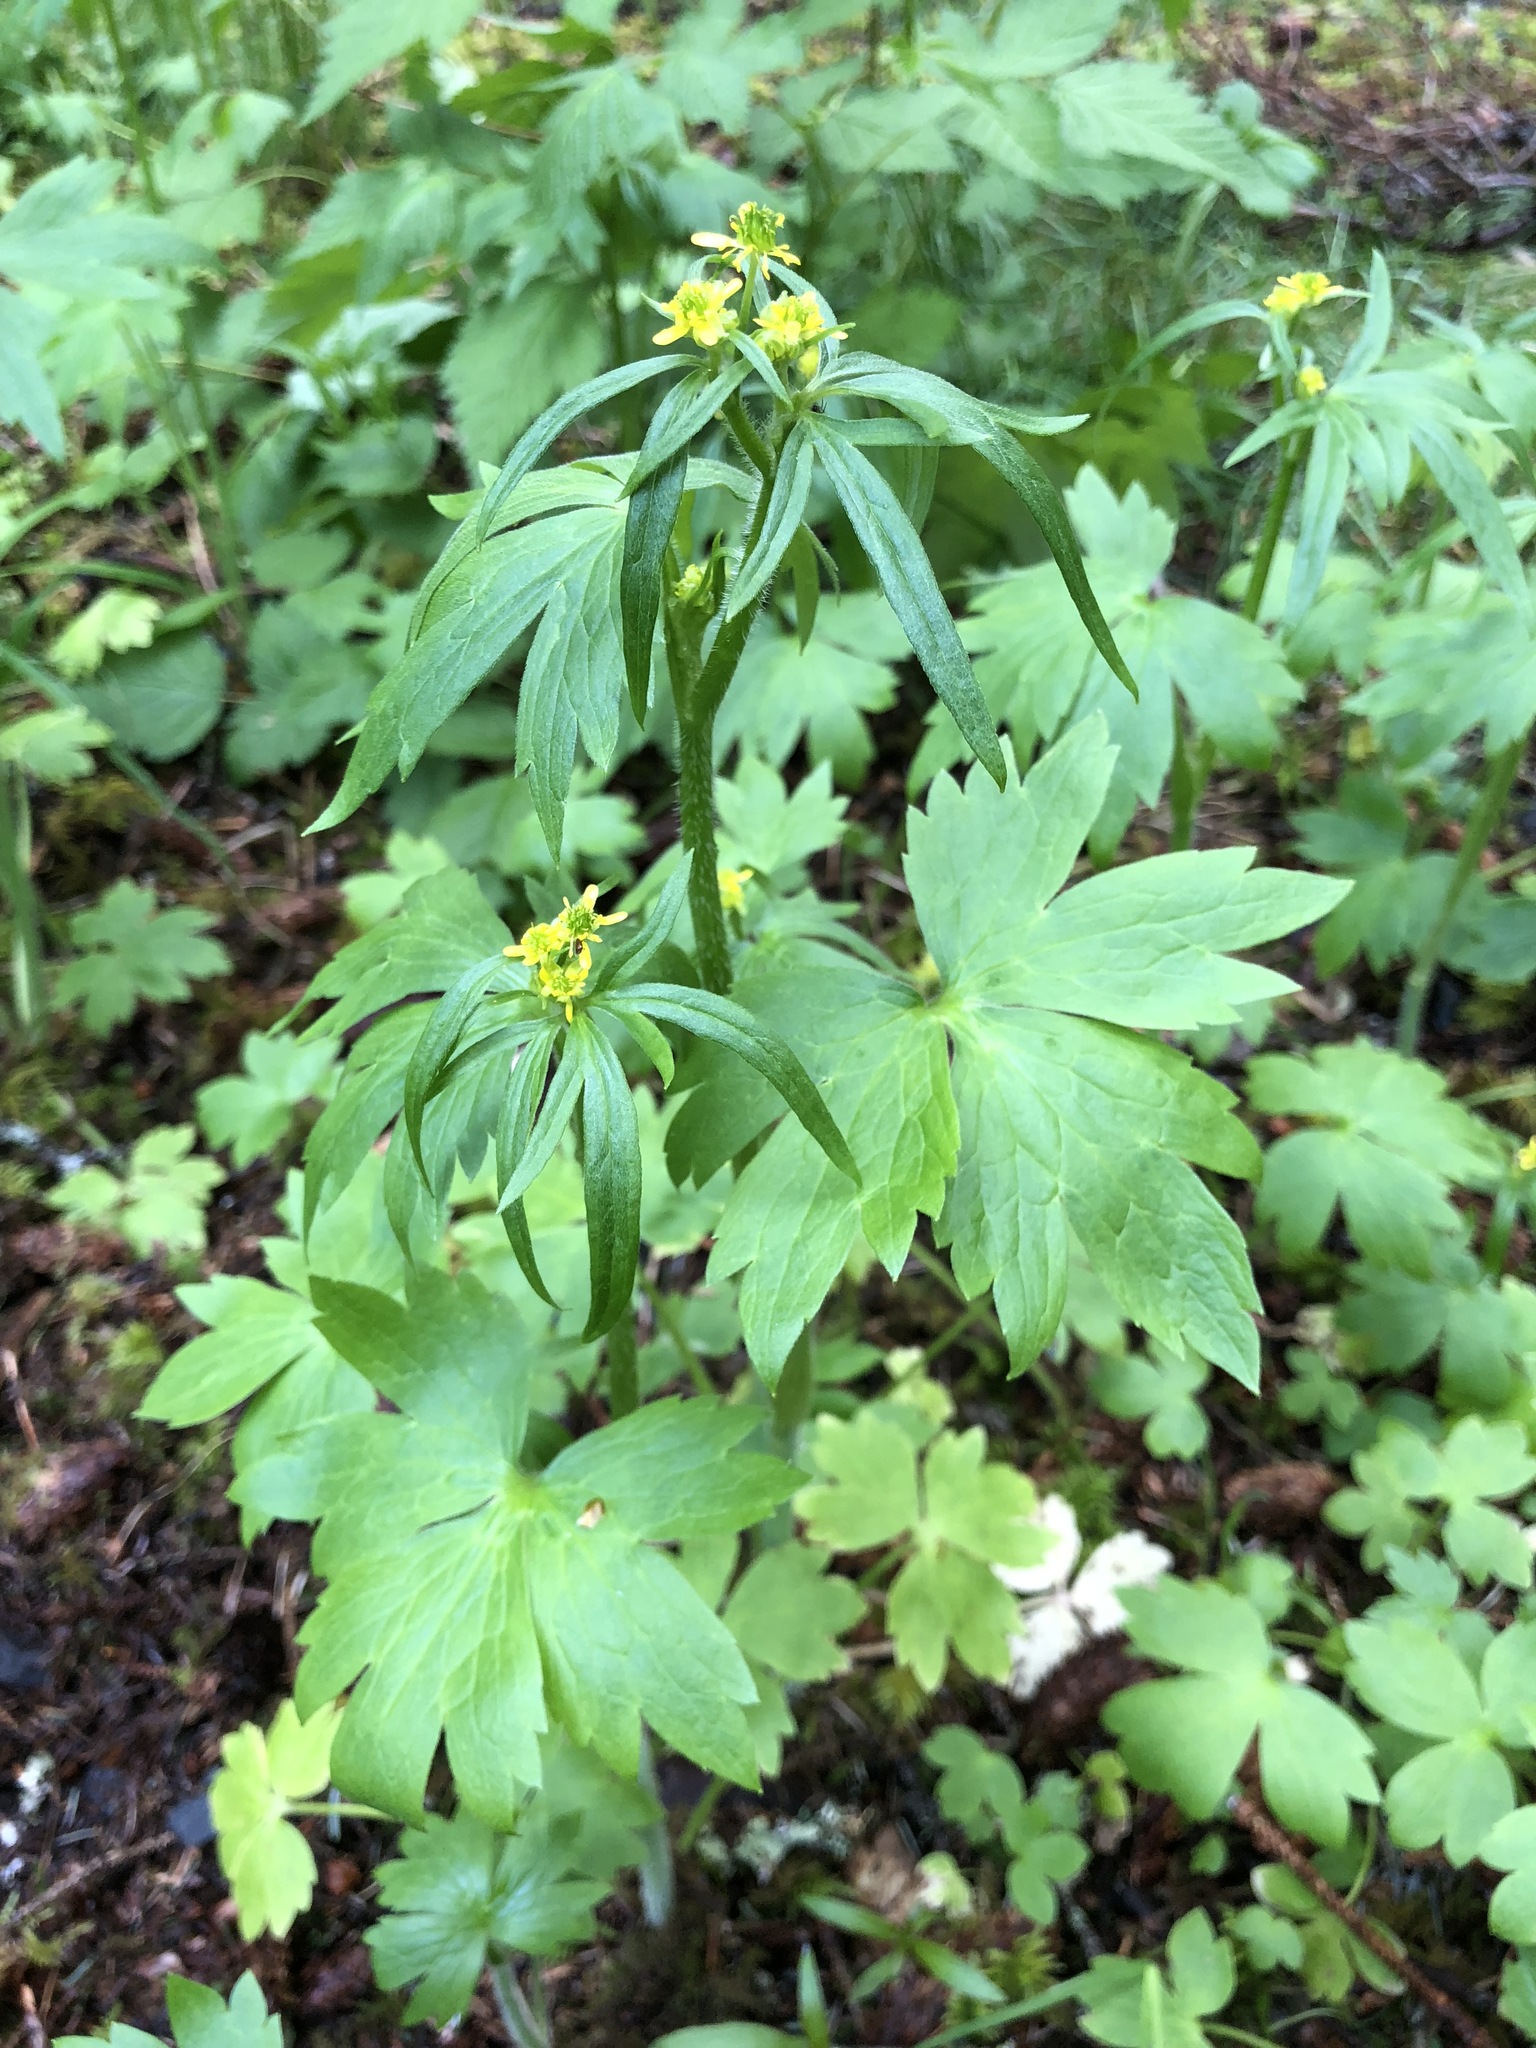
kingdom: Plantae
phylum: Tracheophyta
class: Magnoliopsida
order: Ranunculales
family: Ranunculaceae
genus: Ranunculus
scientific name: Ranunculus uncinatus
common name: Little buttercup
